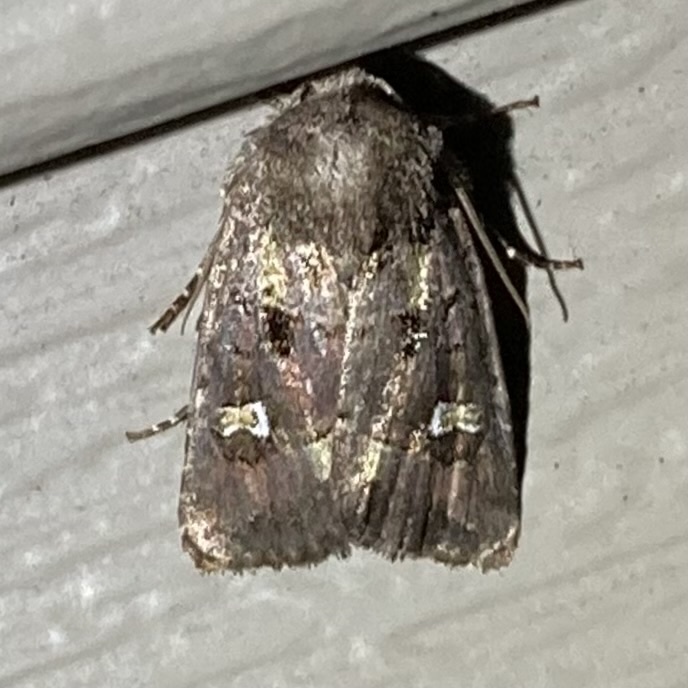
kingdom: Animalia
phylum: Arthropoda
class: Insecta
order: Lepidoptera
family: Noctuidae
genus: Lacinipolia
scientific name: Lacinipolia renigera
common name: Kidney-spotted minor
